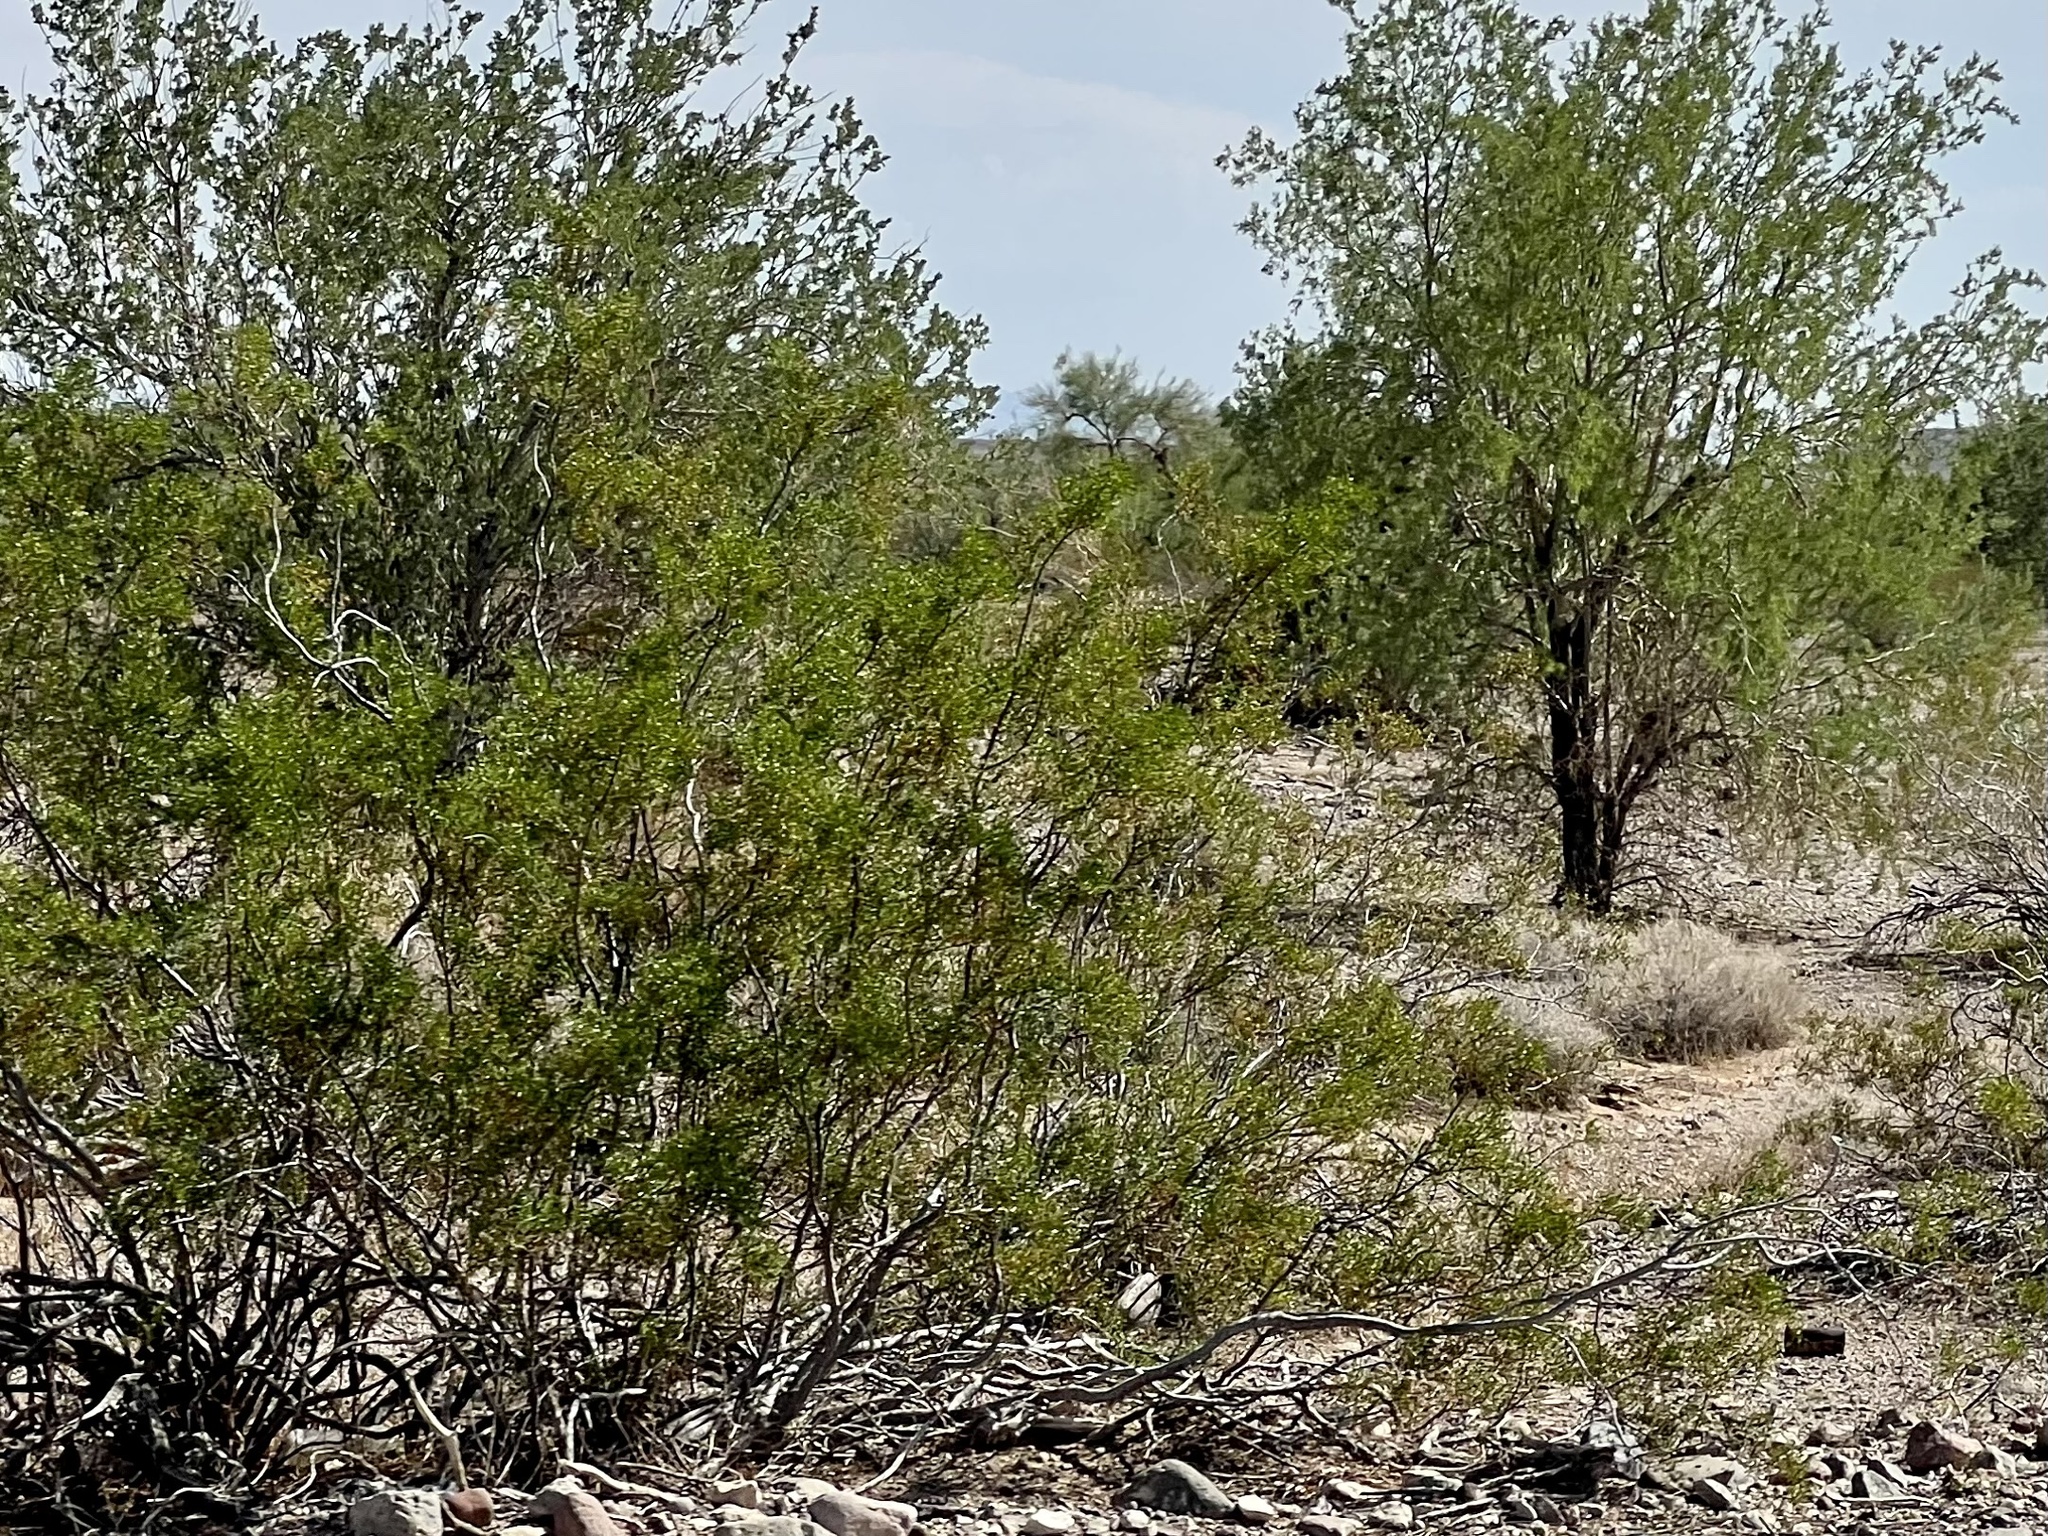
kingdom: Plantae
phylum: Tracheophyta
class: Magnoliopsida
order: Zygophyllales
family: Zygophyllaceae
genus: Larrea
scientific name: Larrea tridentata
